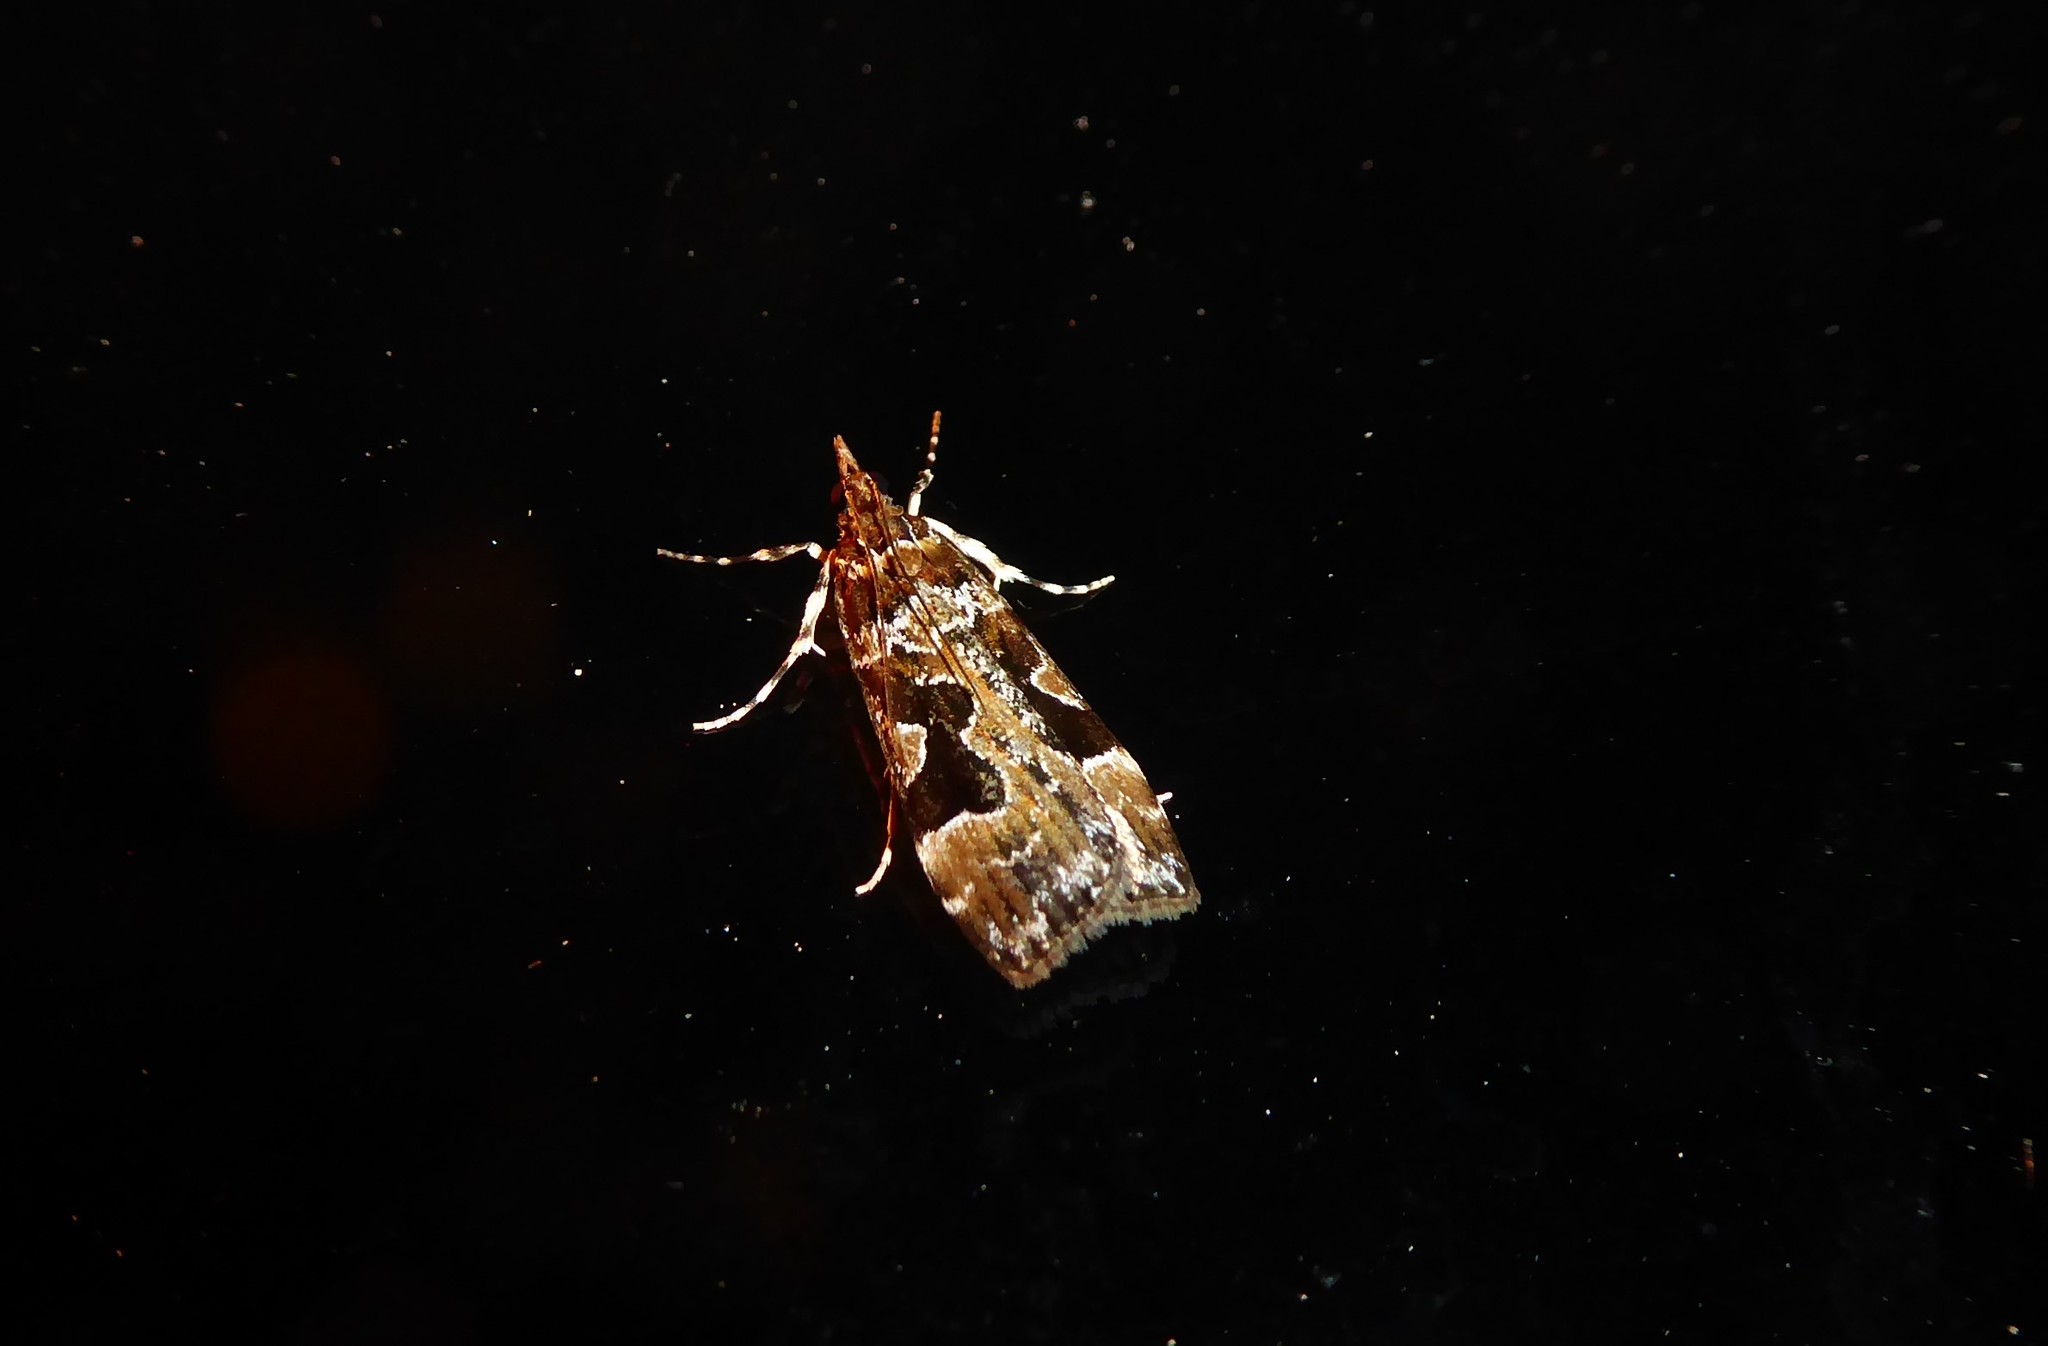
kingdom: Animalia
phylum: Arthropoda
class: Insecta
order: Lepidoptera
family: Crambidae
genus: Scoparia
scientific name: Scoparia ustimacula
